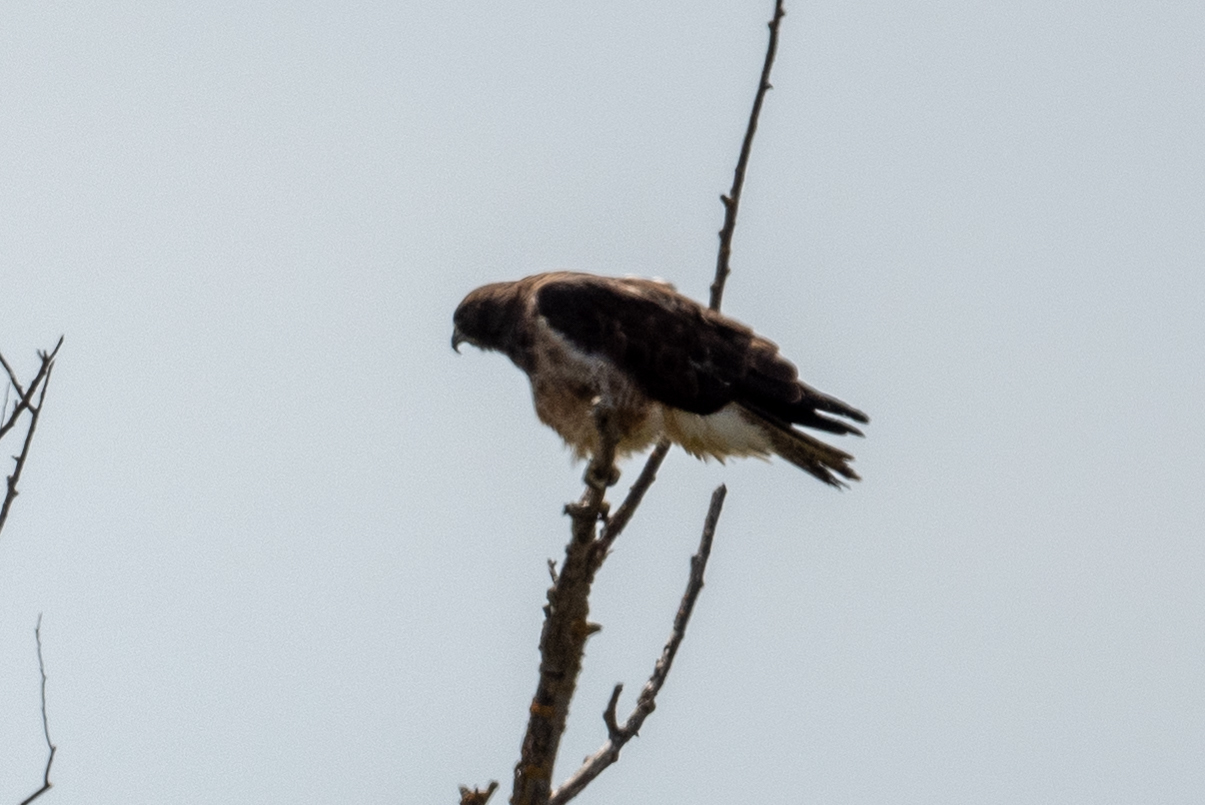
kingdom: Animalia
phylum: Chordata
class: Aves
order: Accipitriformes
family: Accipitridae
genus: Buteo
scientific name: Buteo swainsoni
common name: Swainson's hawk
